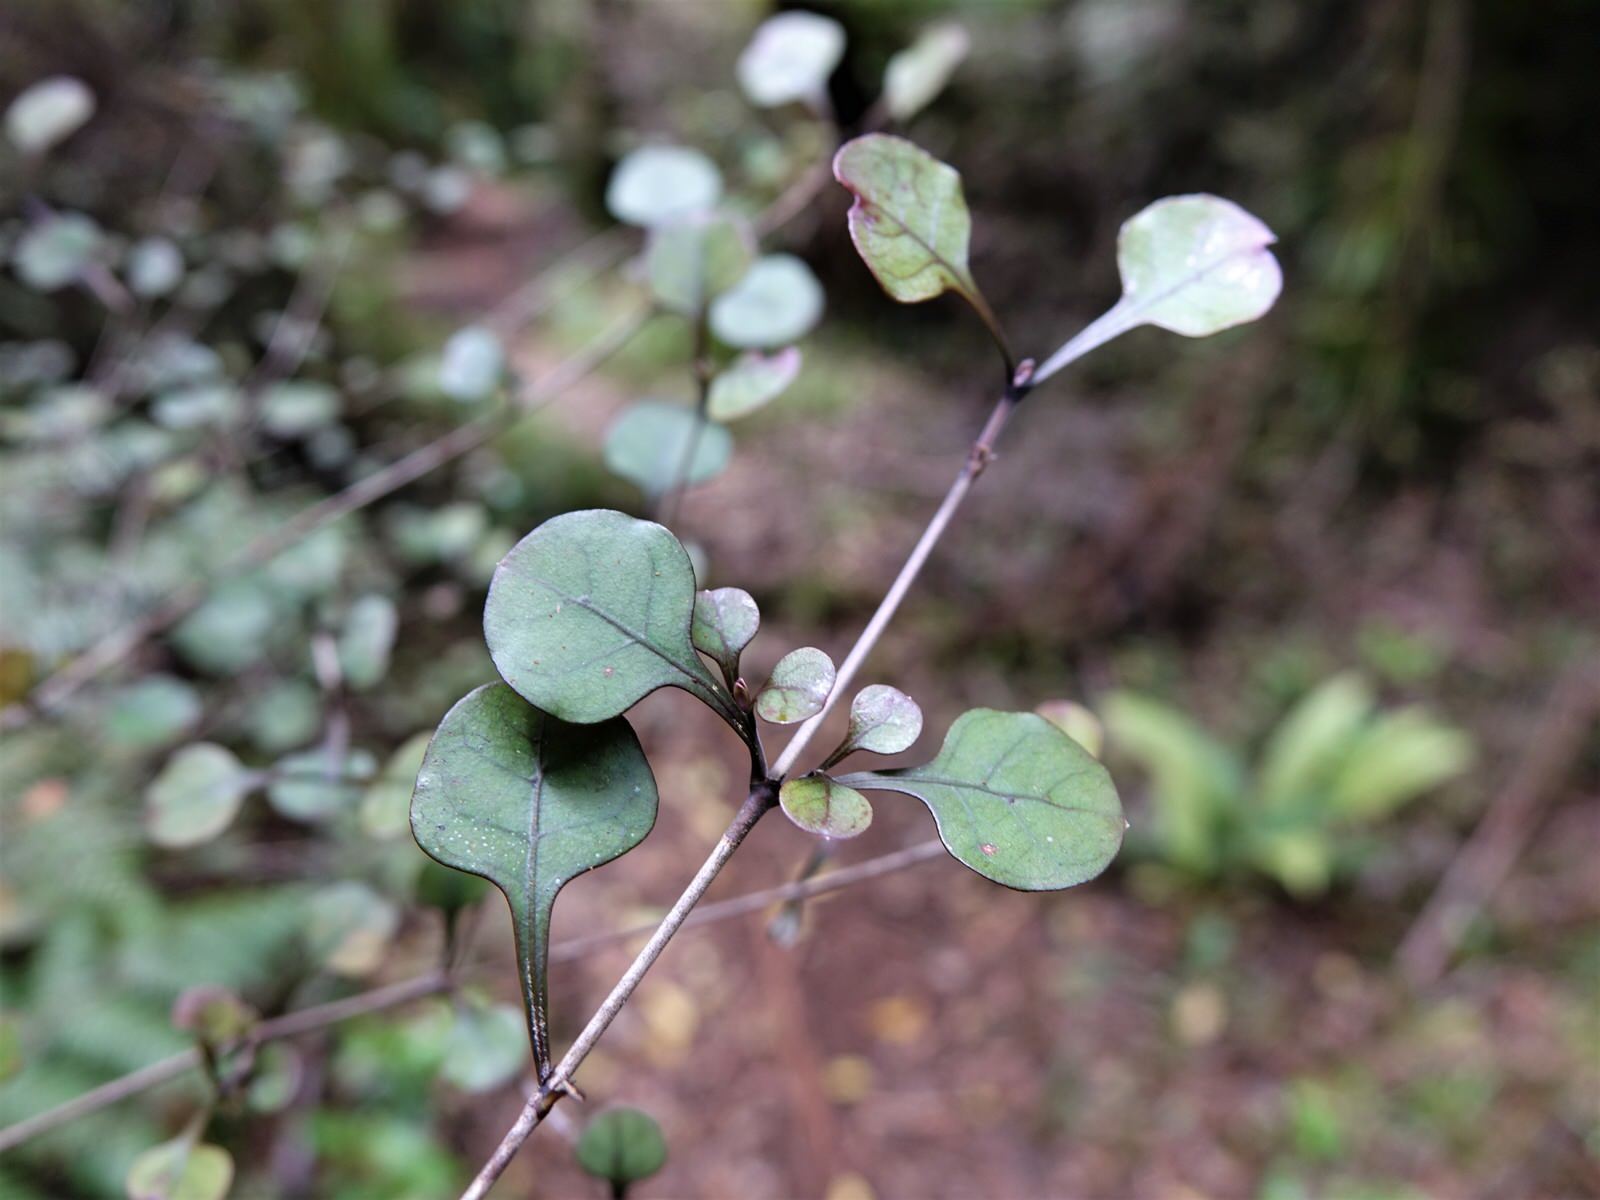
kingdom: Plantae
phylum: Tracheophyta
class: Magnoliopsida
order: Gentianales
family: Rubiaceae
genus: Coprosma
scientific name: Coprosma arborea
